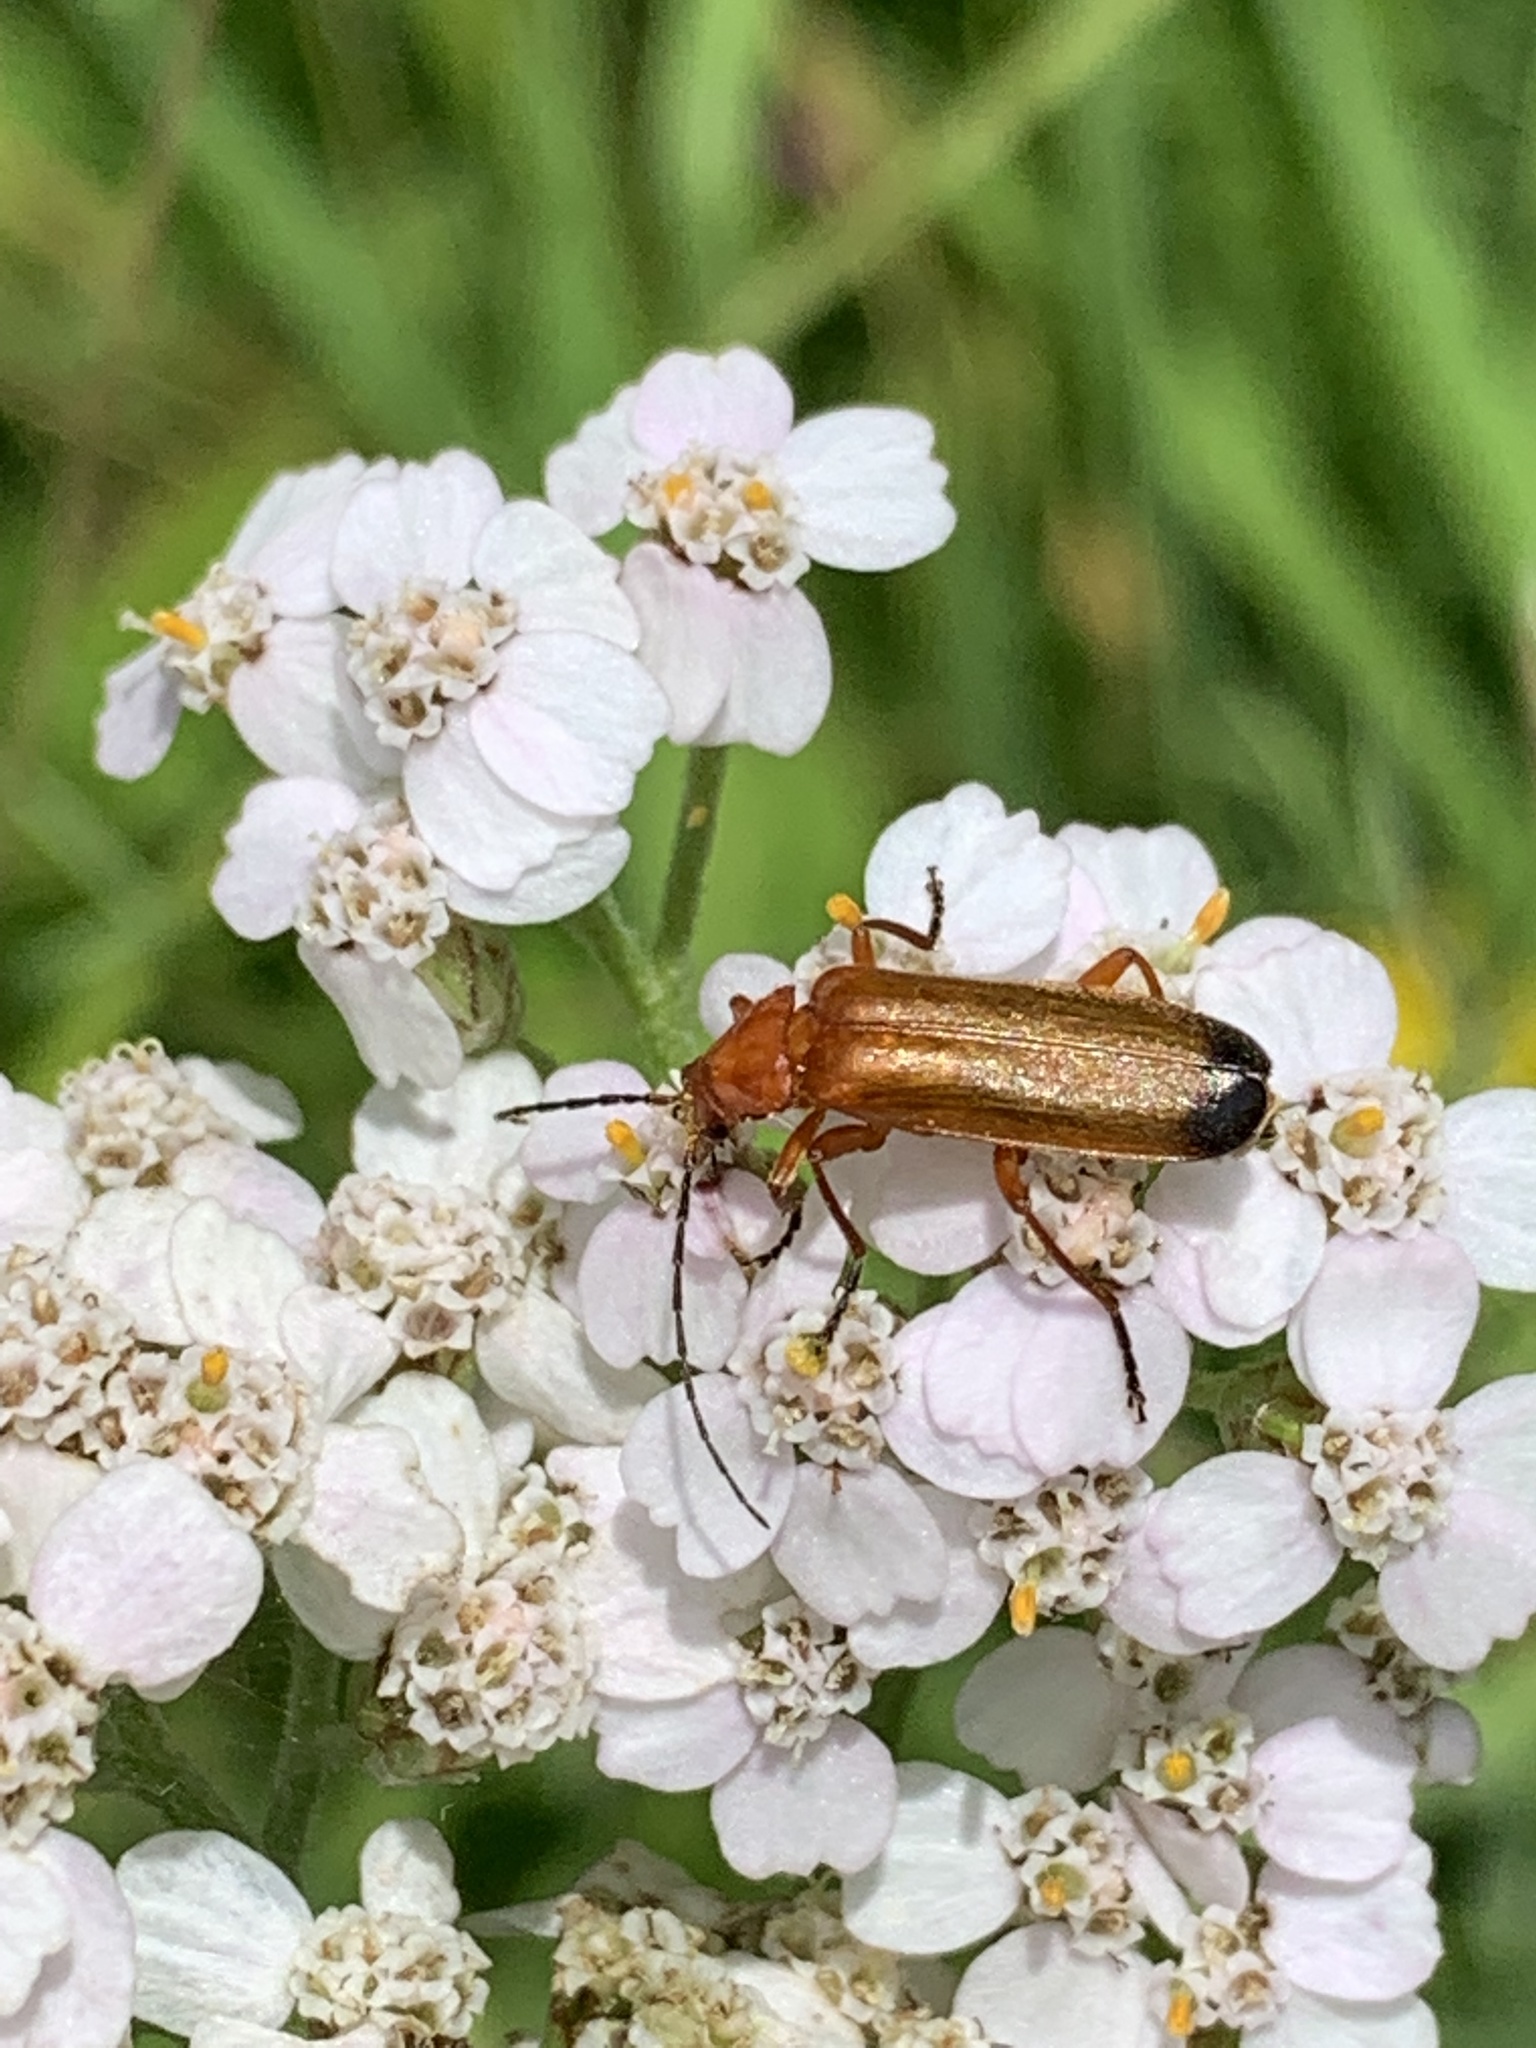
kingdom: Animalia
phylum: Arthropoda
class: Insecta
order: Coleoptera
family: Cantharidae
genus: Rhagonycha
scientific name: Rhagonycha fulva
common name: Common red soldier beetle
